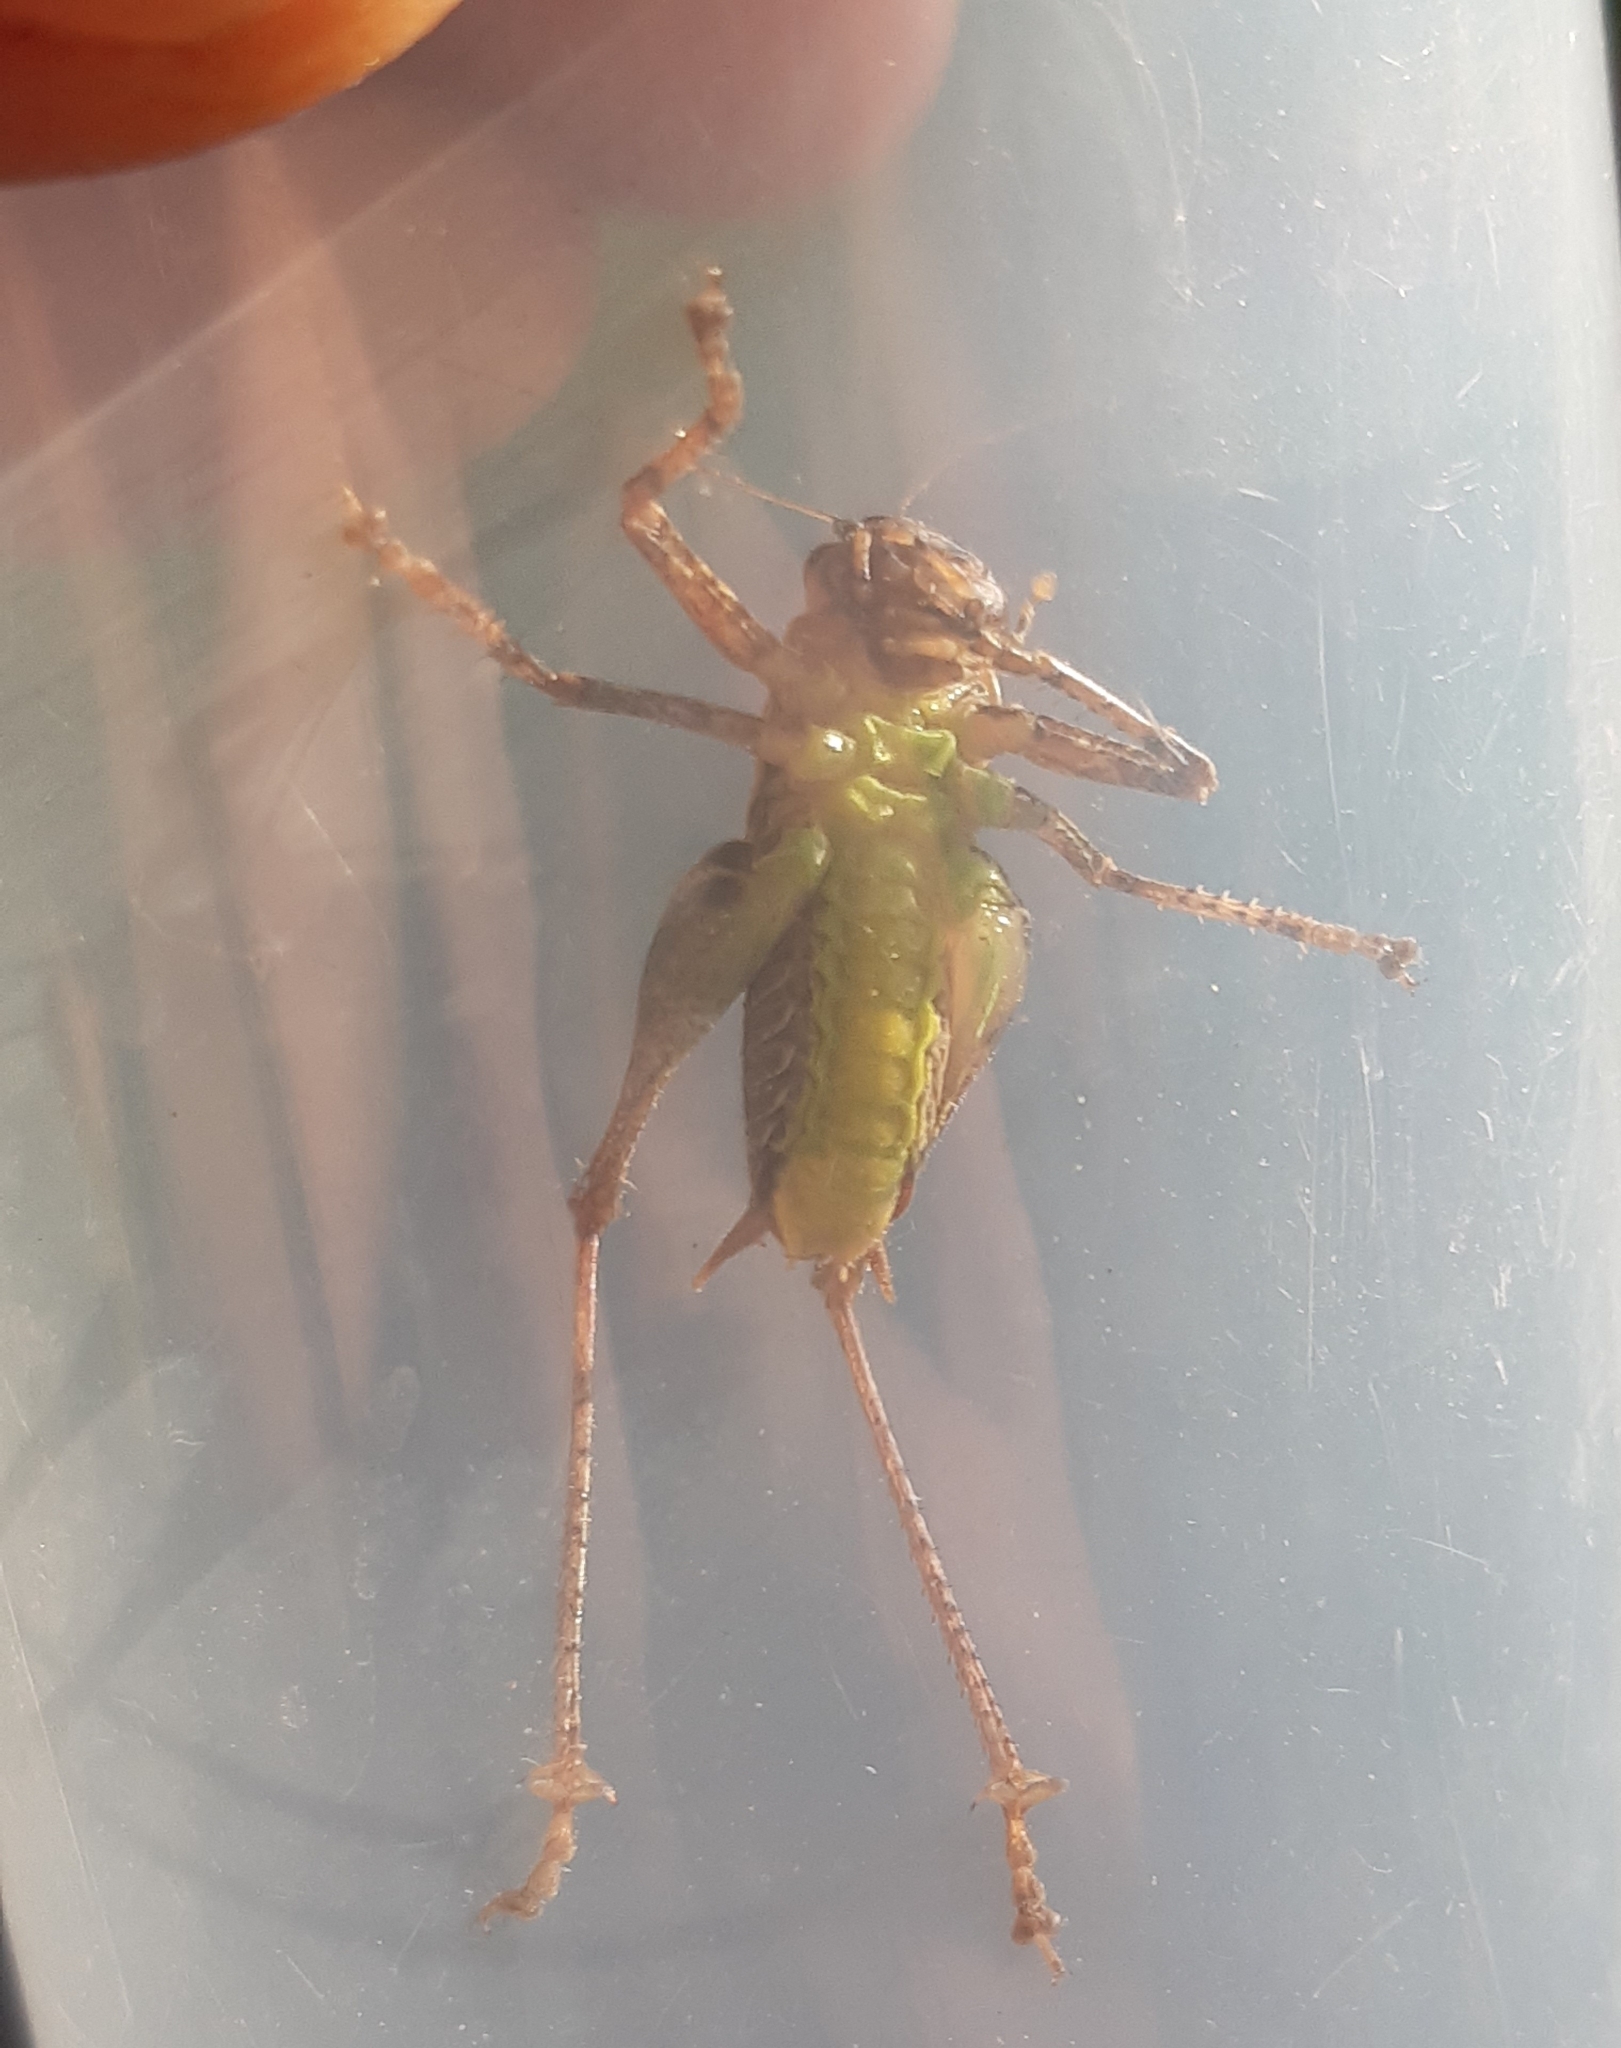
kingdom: Animalia
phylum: Arthropoda
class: Insecta
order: Orthoptera
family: Tettigoniidae
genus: Pholidoptera
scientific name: Pholidoptera griseoaptera
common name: Dark bush-cricket
